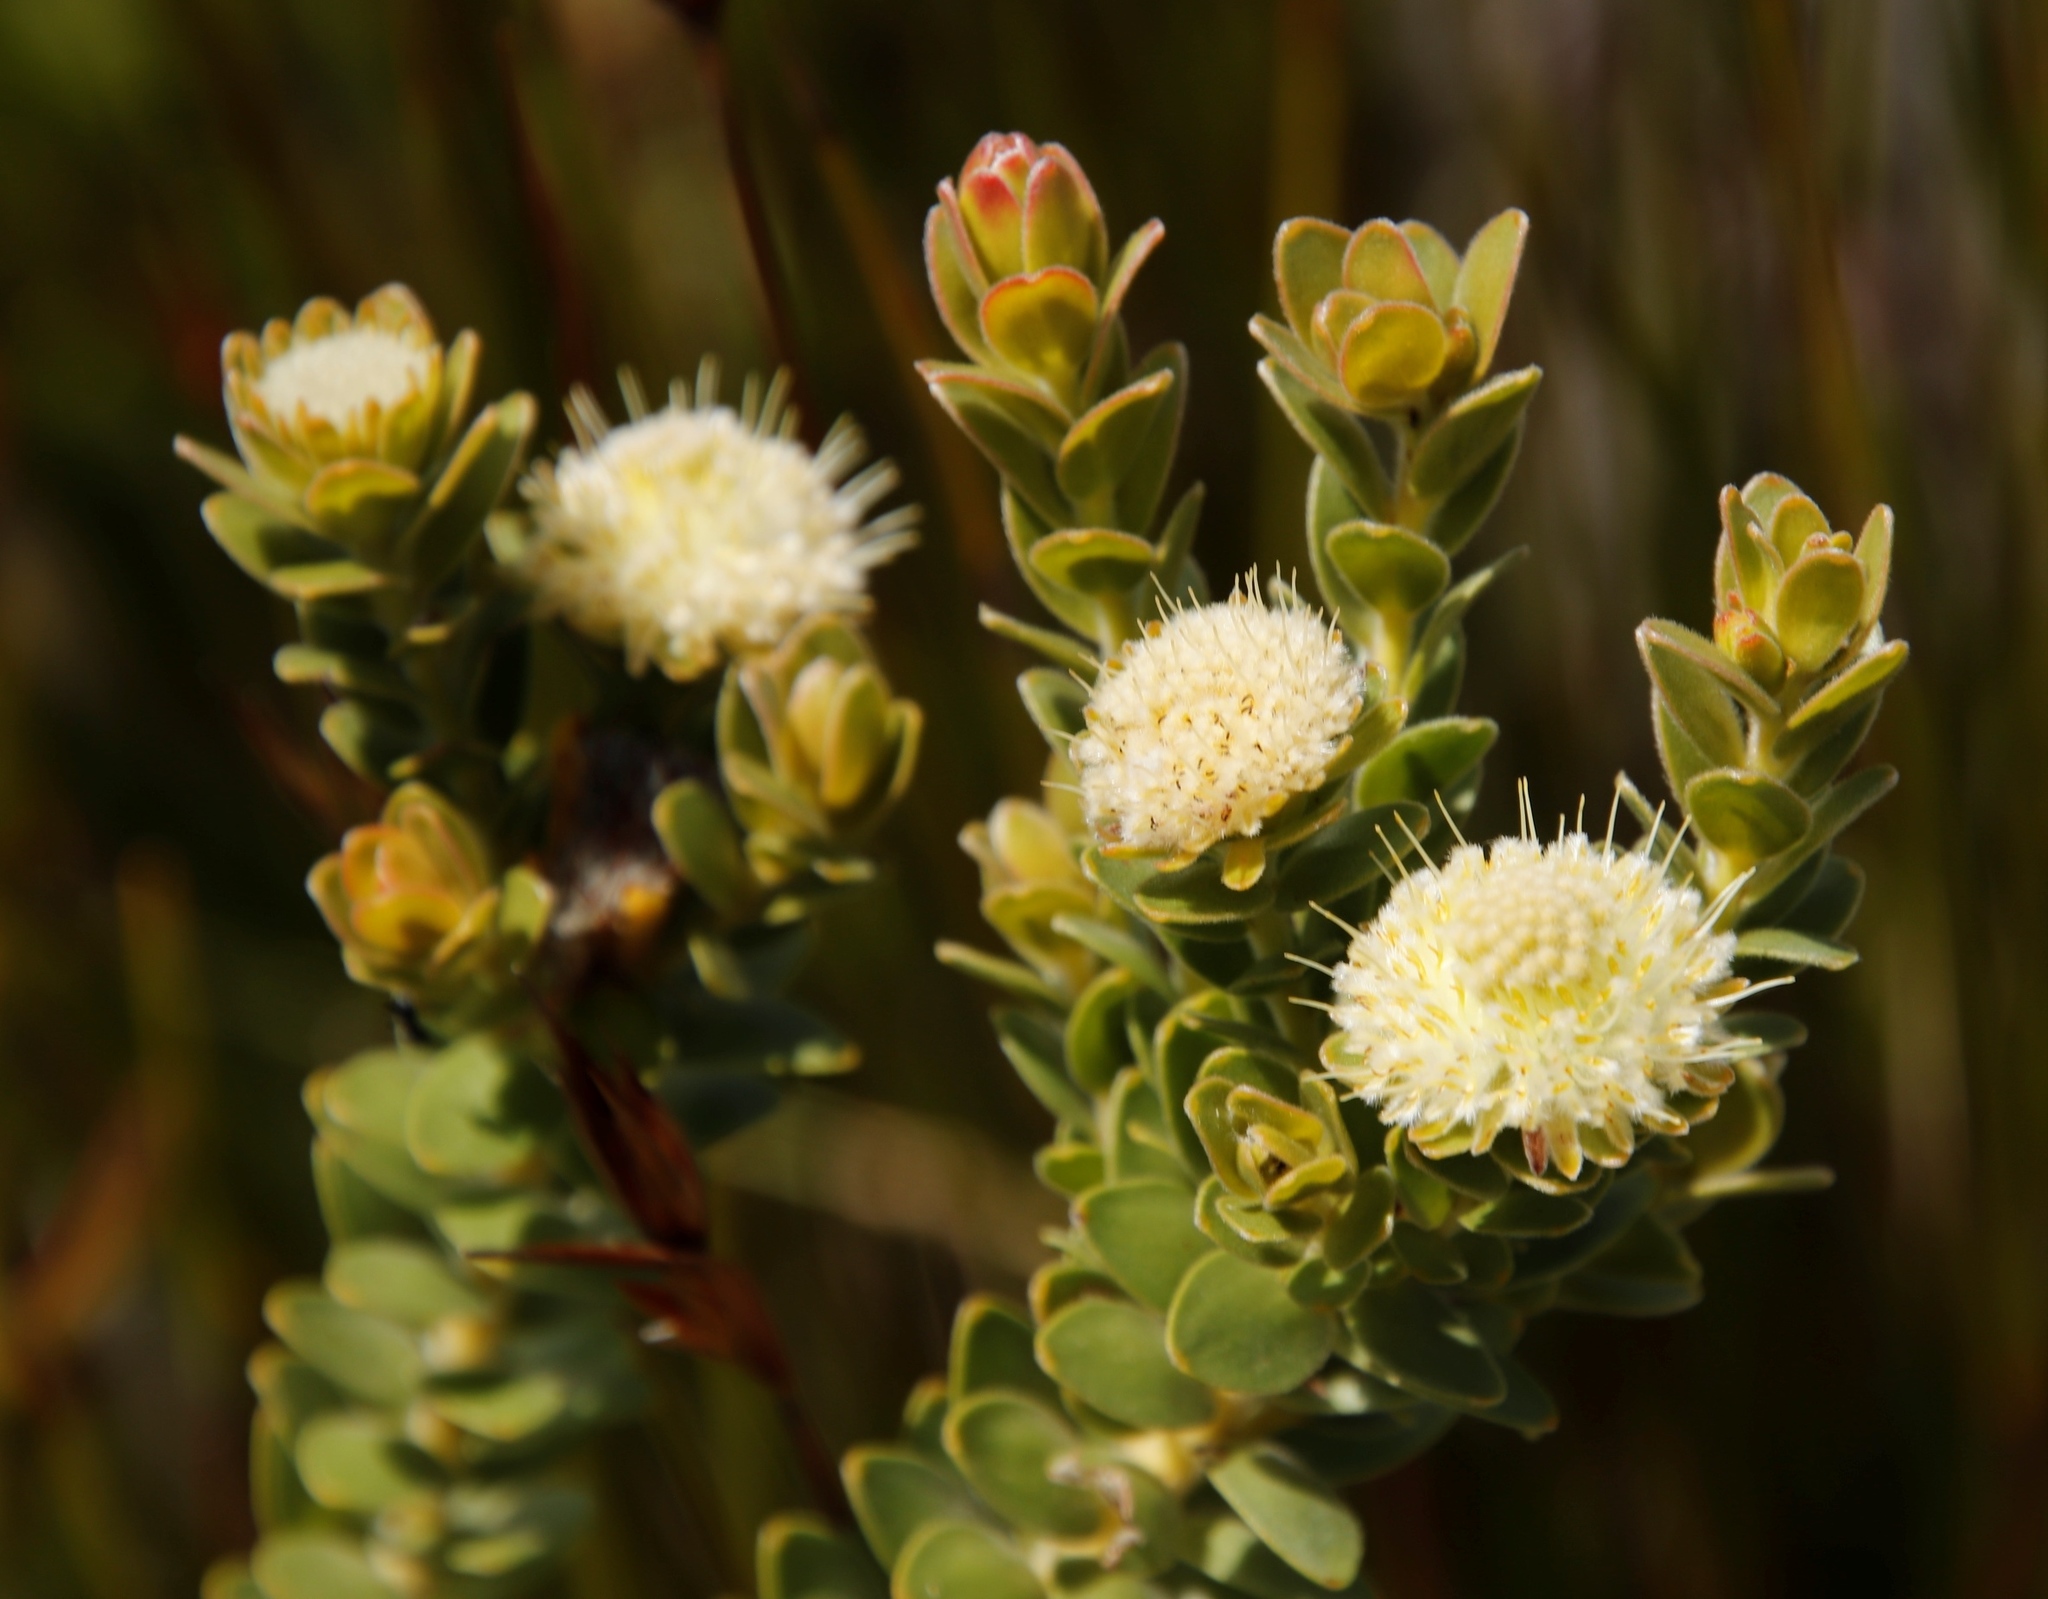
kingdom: Plantae
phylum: Tracheophyta
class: Magnoliopsida
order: Proteales
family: Proteaceae
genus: Diastella
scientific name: Diastella thymelaeoides
